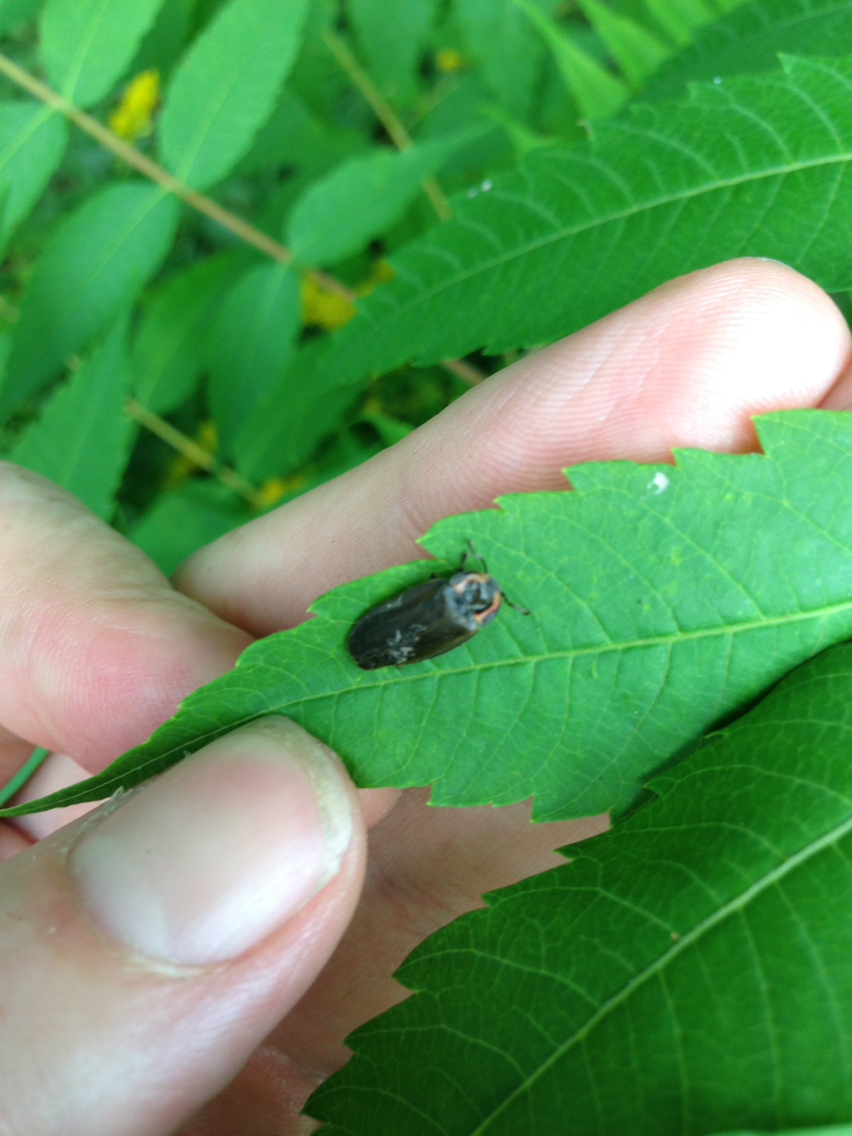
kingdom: Animalia
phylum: Arthropoda
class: Insecta
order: Coleoptera
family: Lampyridae
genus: Photinus
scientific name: Photinus corrusca
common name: Winter firefly
